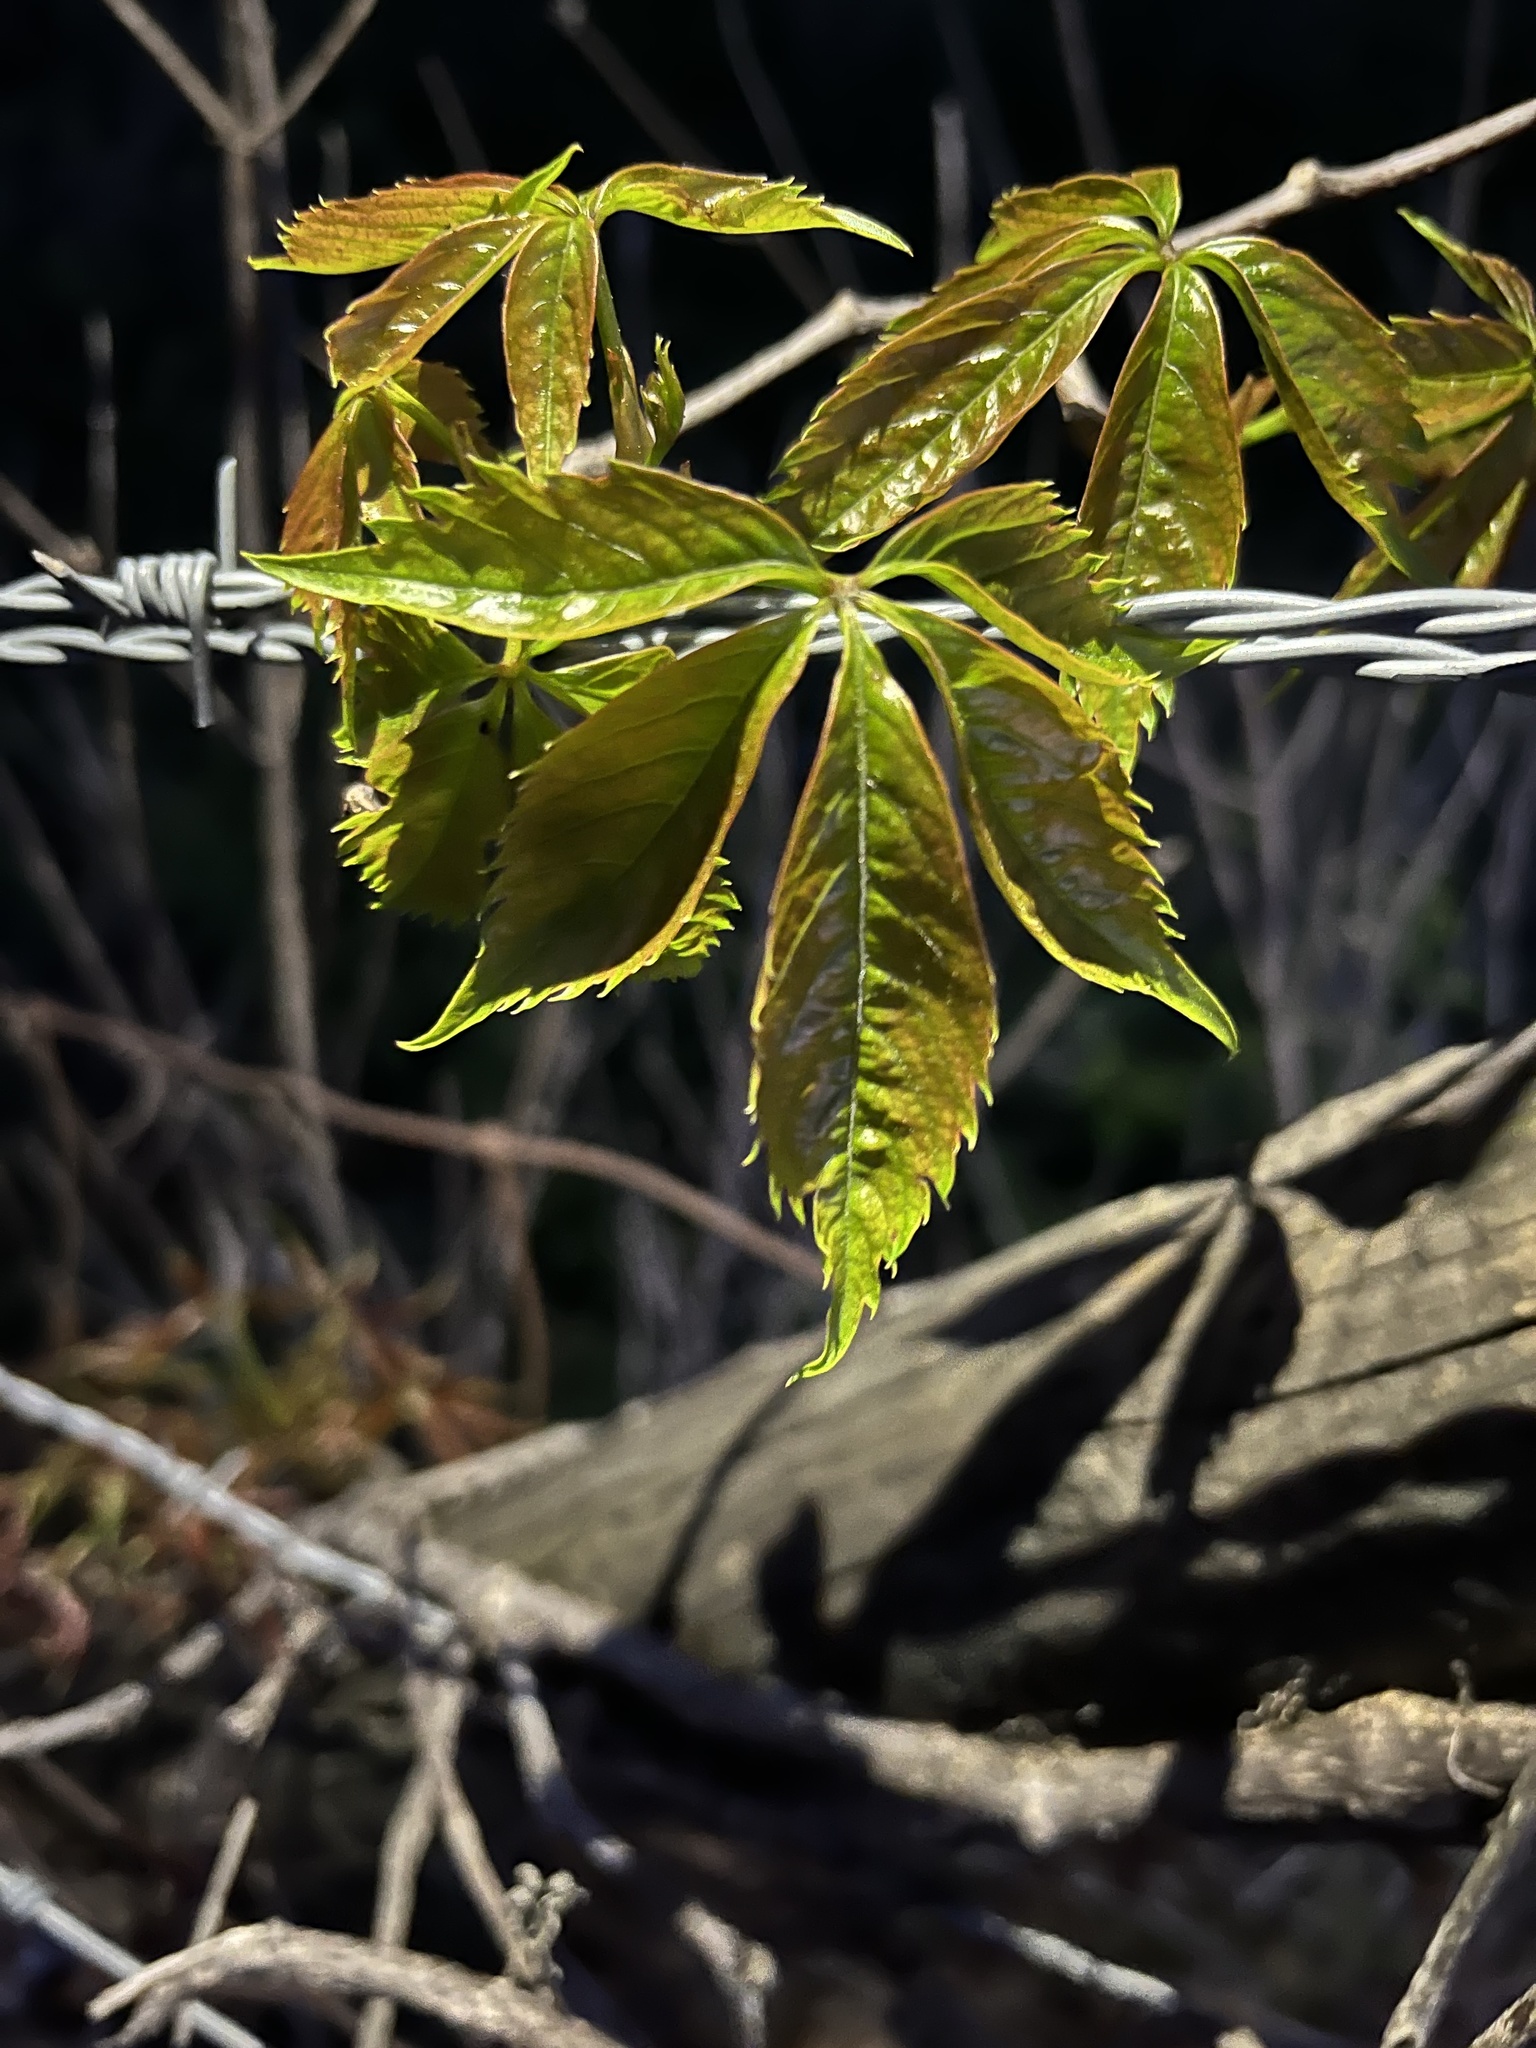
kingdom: Plantae
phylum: Tracheophyta
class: Magnoliopsida
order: Vitales
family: Vitaceae
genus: Parthenocissus
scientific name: Parthenocissus quinquefolia
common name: Virginia-creeper
